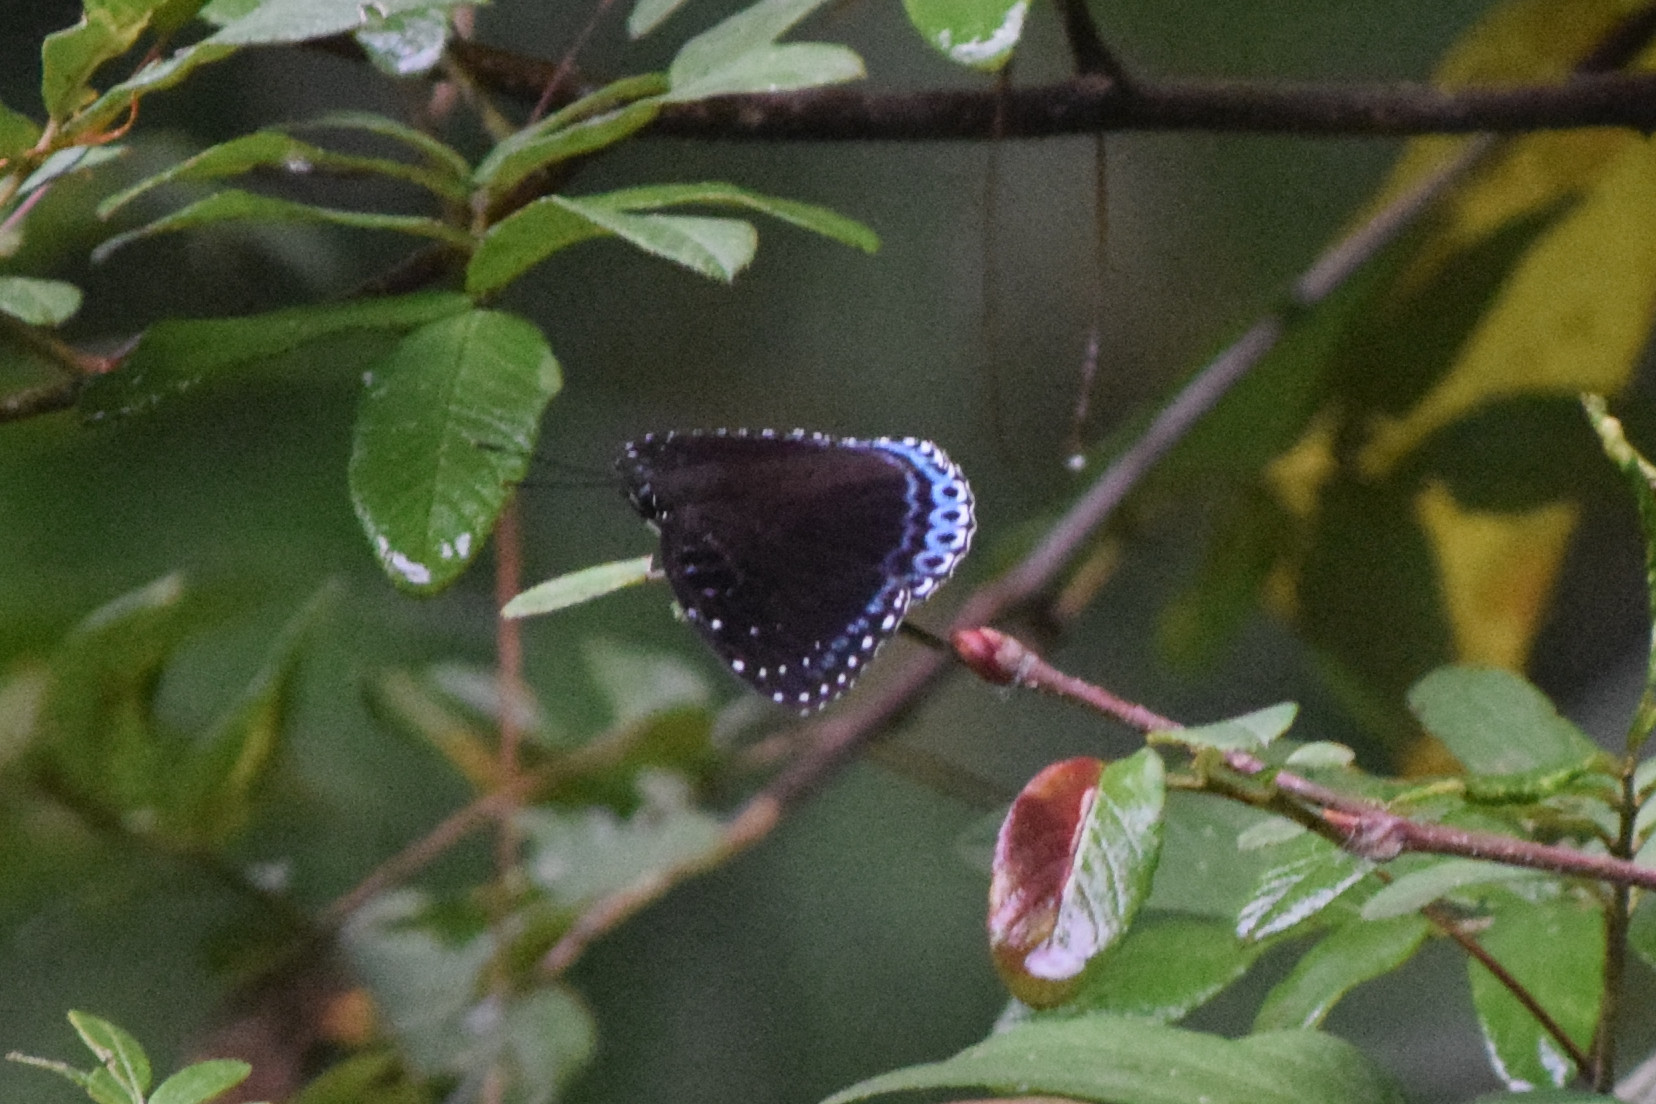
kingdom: Animalia
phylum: Arthropoda
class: Insecta
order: Lepidoptera
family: Nymphalidae
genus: Stibochiona
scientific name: Stibochiona nicea
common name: Popinjay
